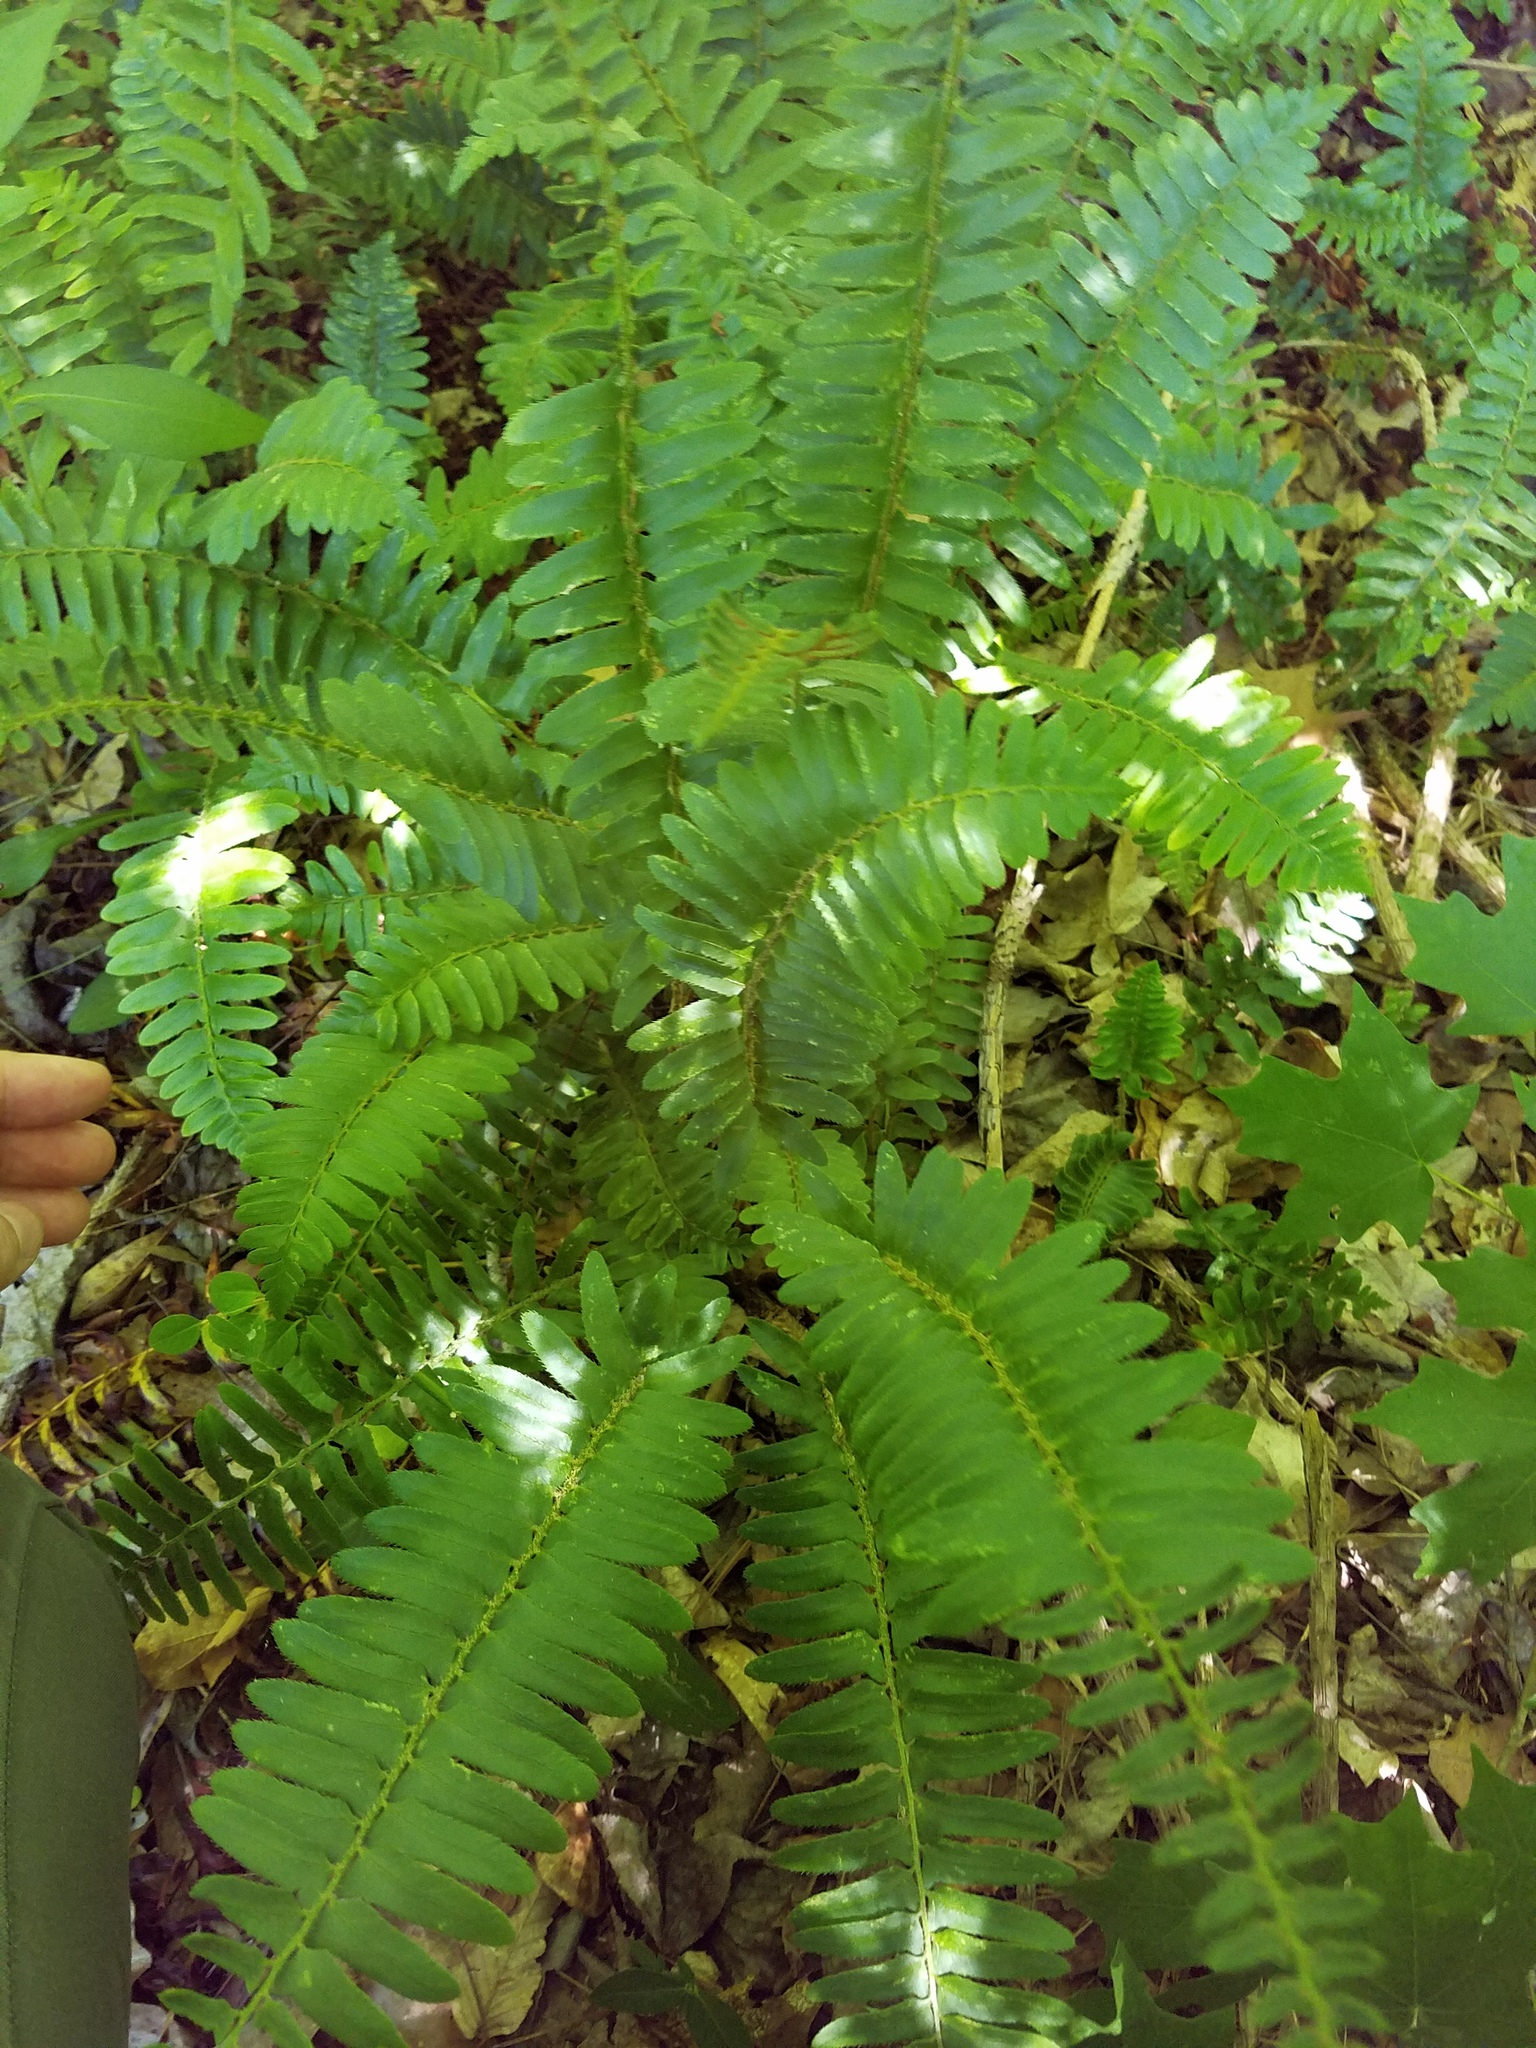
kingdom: Plantae
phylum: Tracheophyta
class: Polypodiopsida
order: Polypodiales
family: Dryopteridaceae
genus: Polystichum
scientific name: Polystichum acrostichoides
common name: Christmas fern
